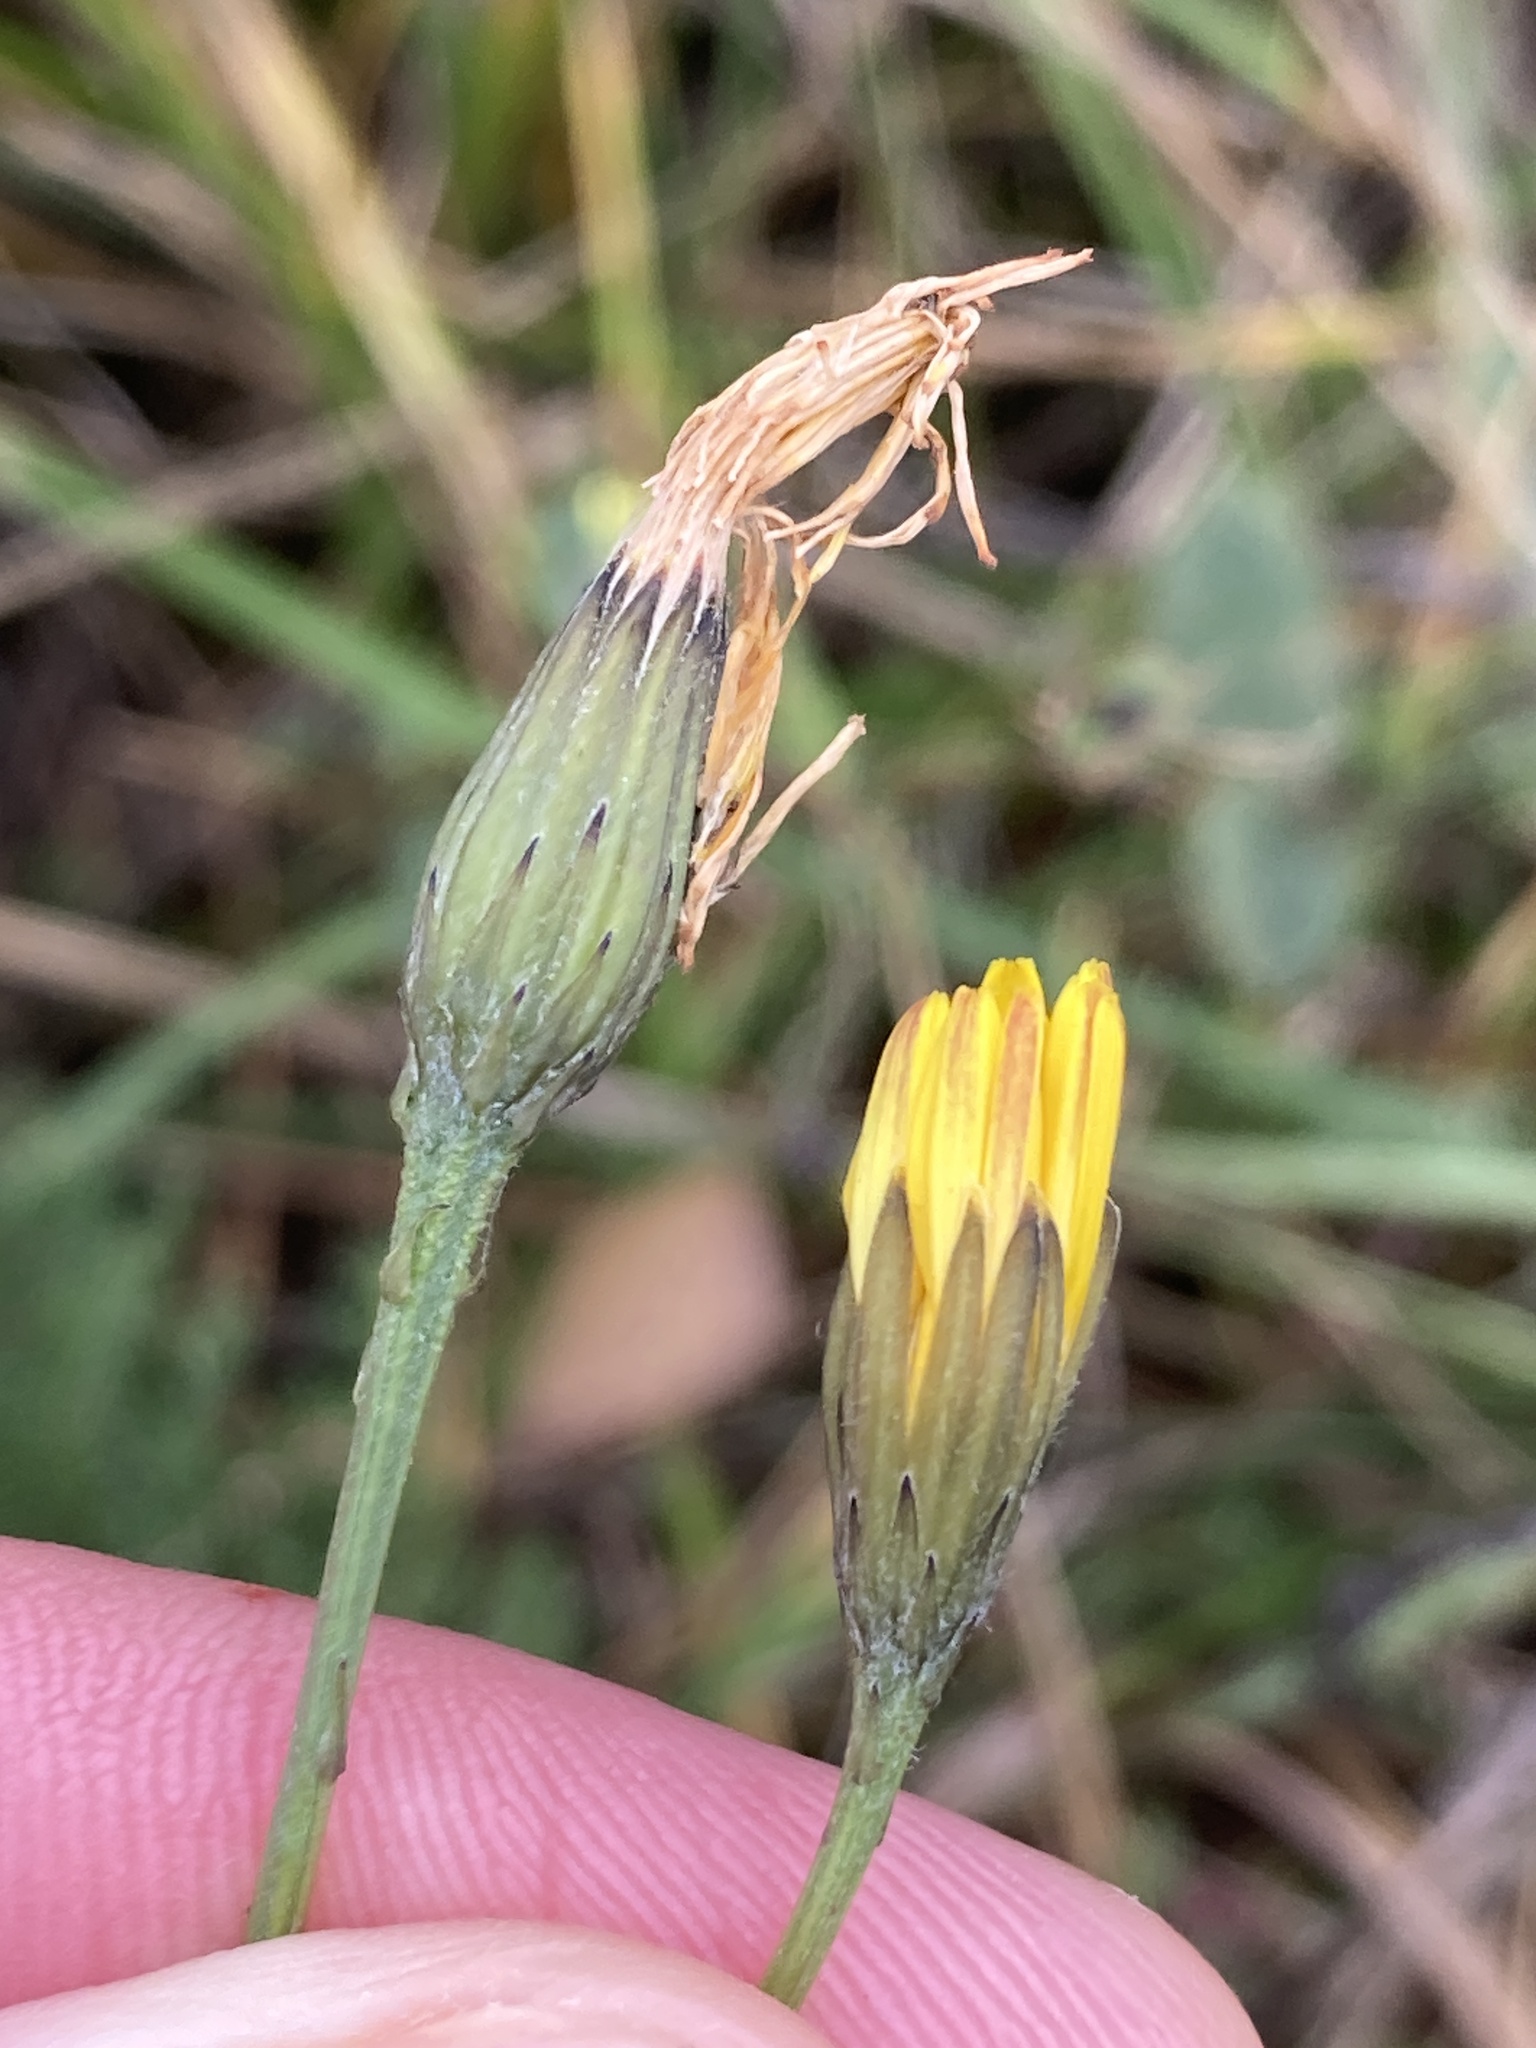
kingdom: Plantae
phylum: Tracheophyta
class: Magnoliopsida
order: Asterales
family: Asteraceae
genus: Scorzoneroides
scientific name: Scorzoneroides autumnalis
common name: Autumn hawkbit
